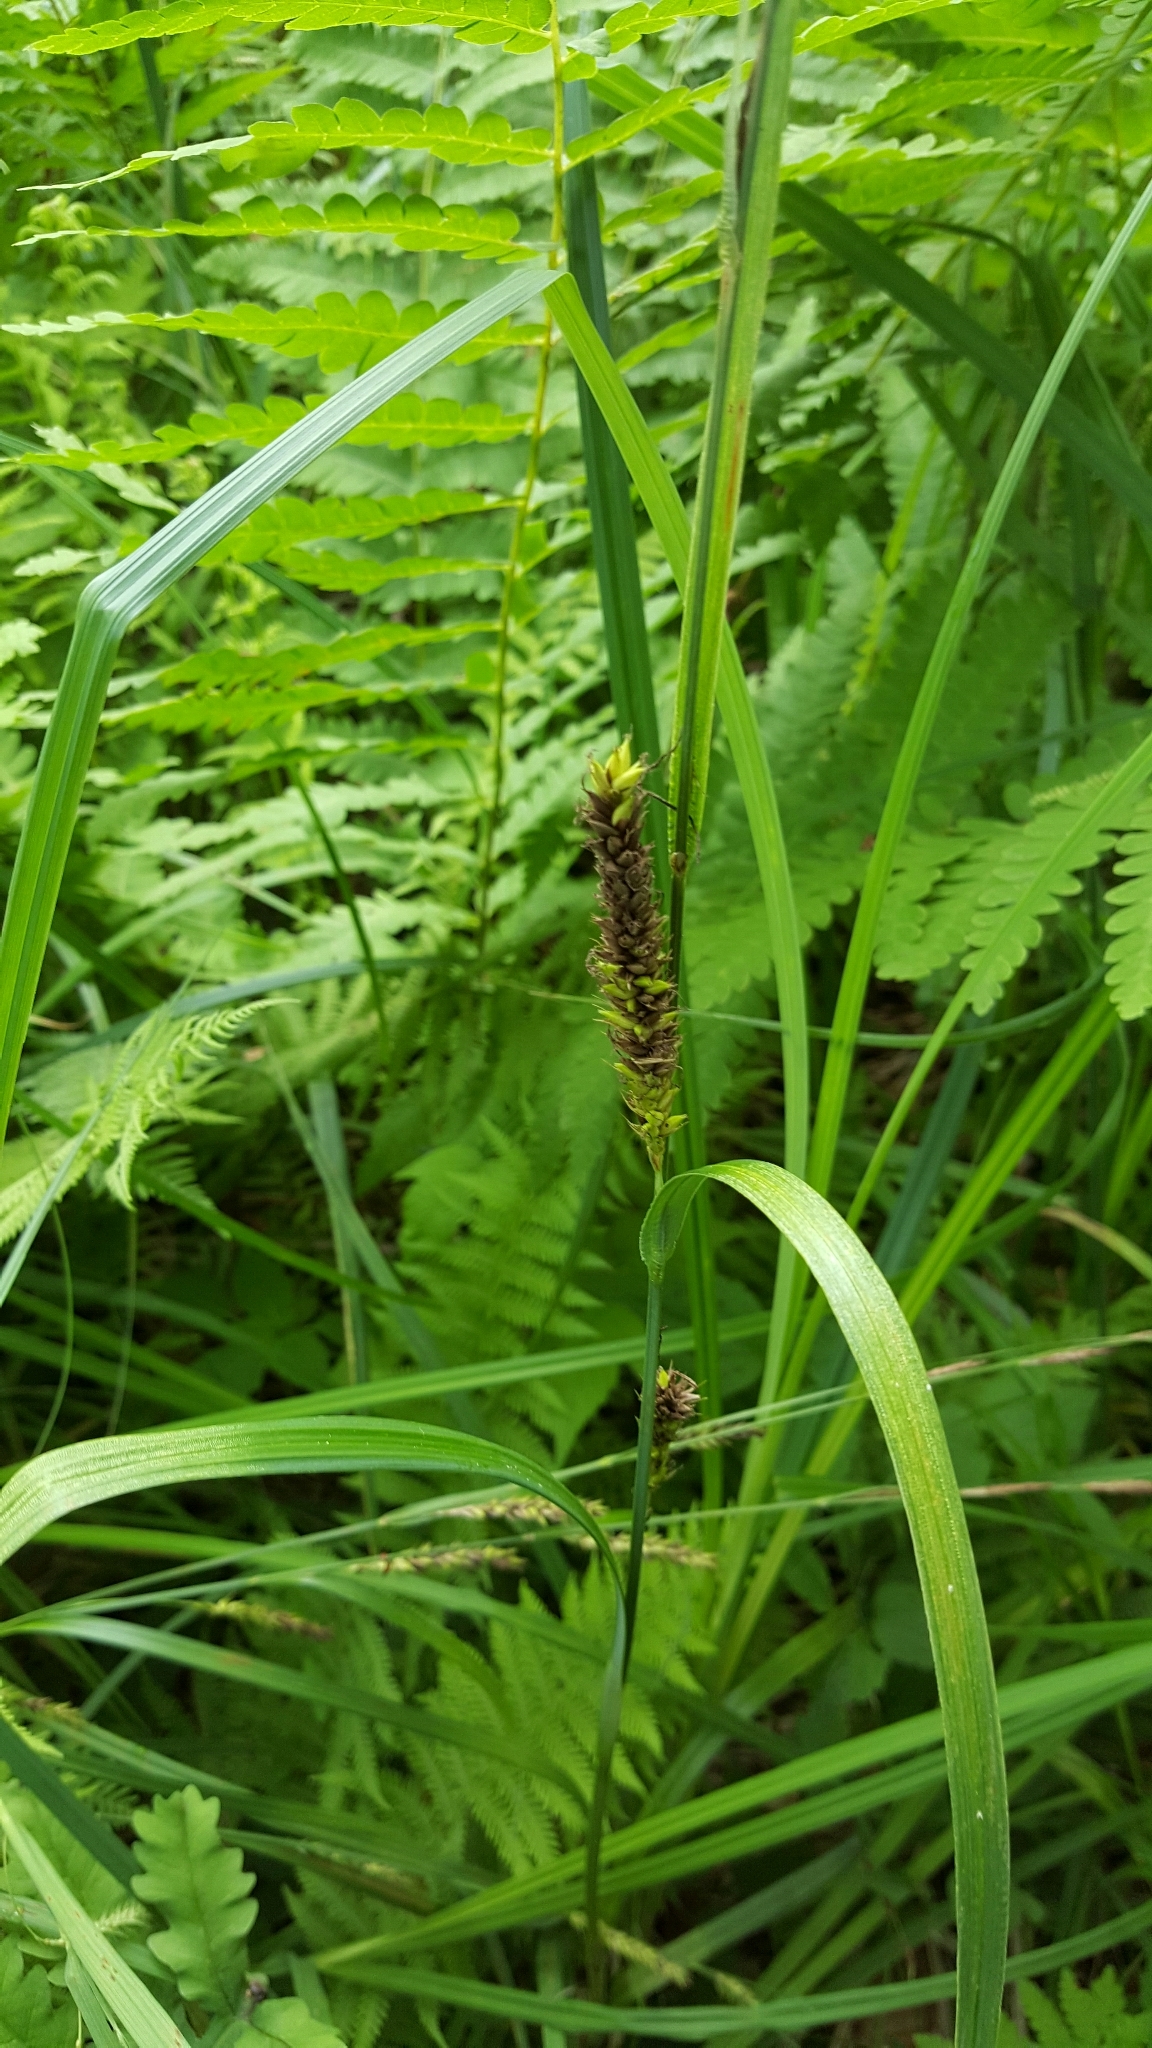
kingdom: Plantae
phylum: Tracheophyta
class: Liliopsida
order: Poales
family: Cyperaceae
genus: Carex
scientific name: Carex lacustris
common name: Common lake sedge
